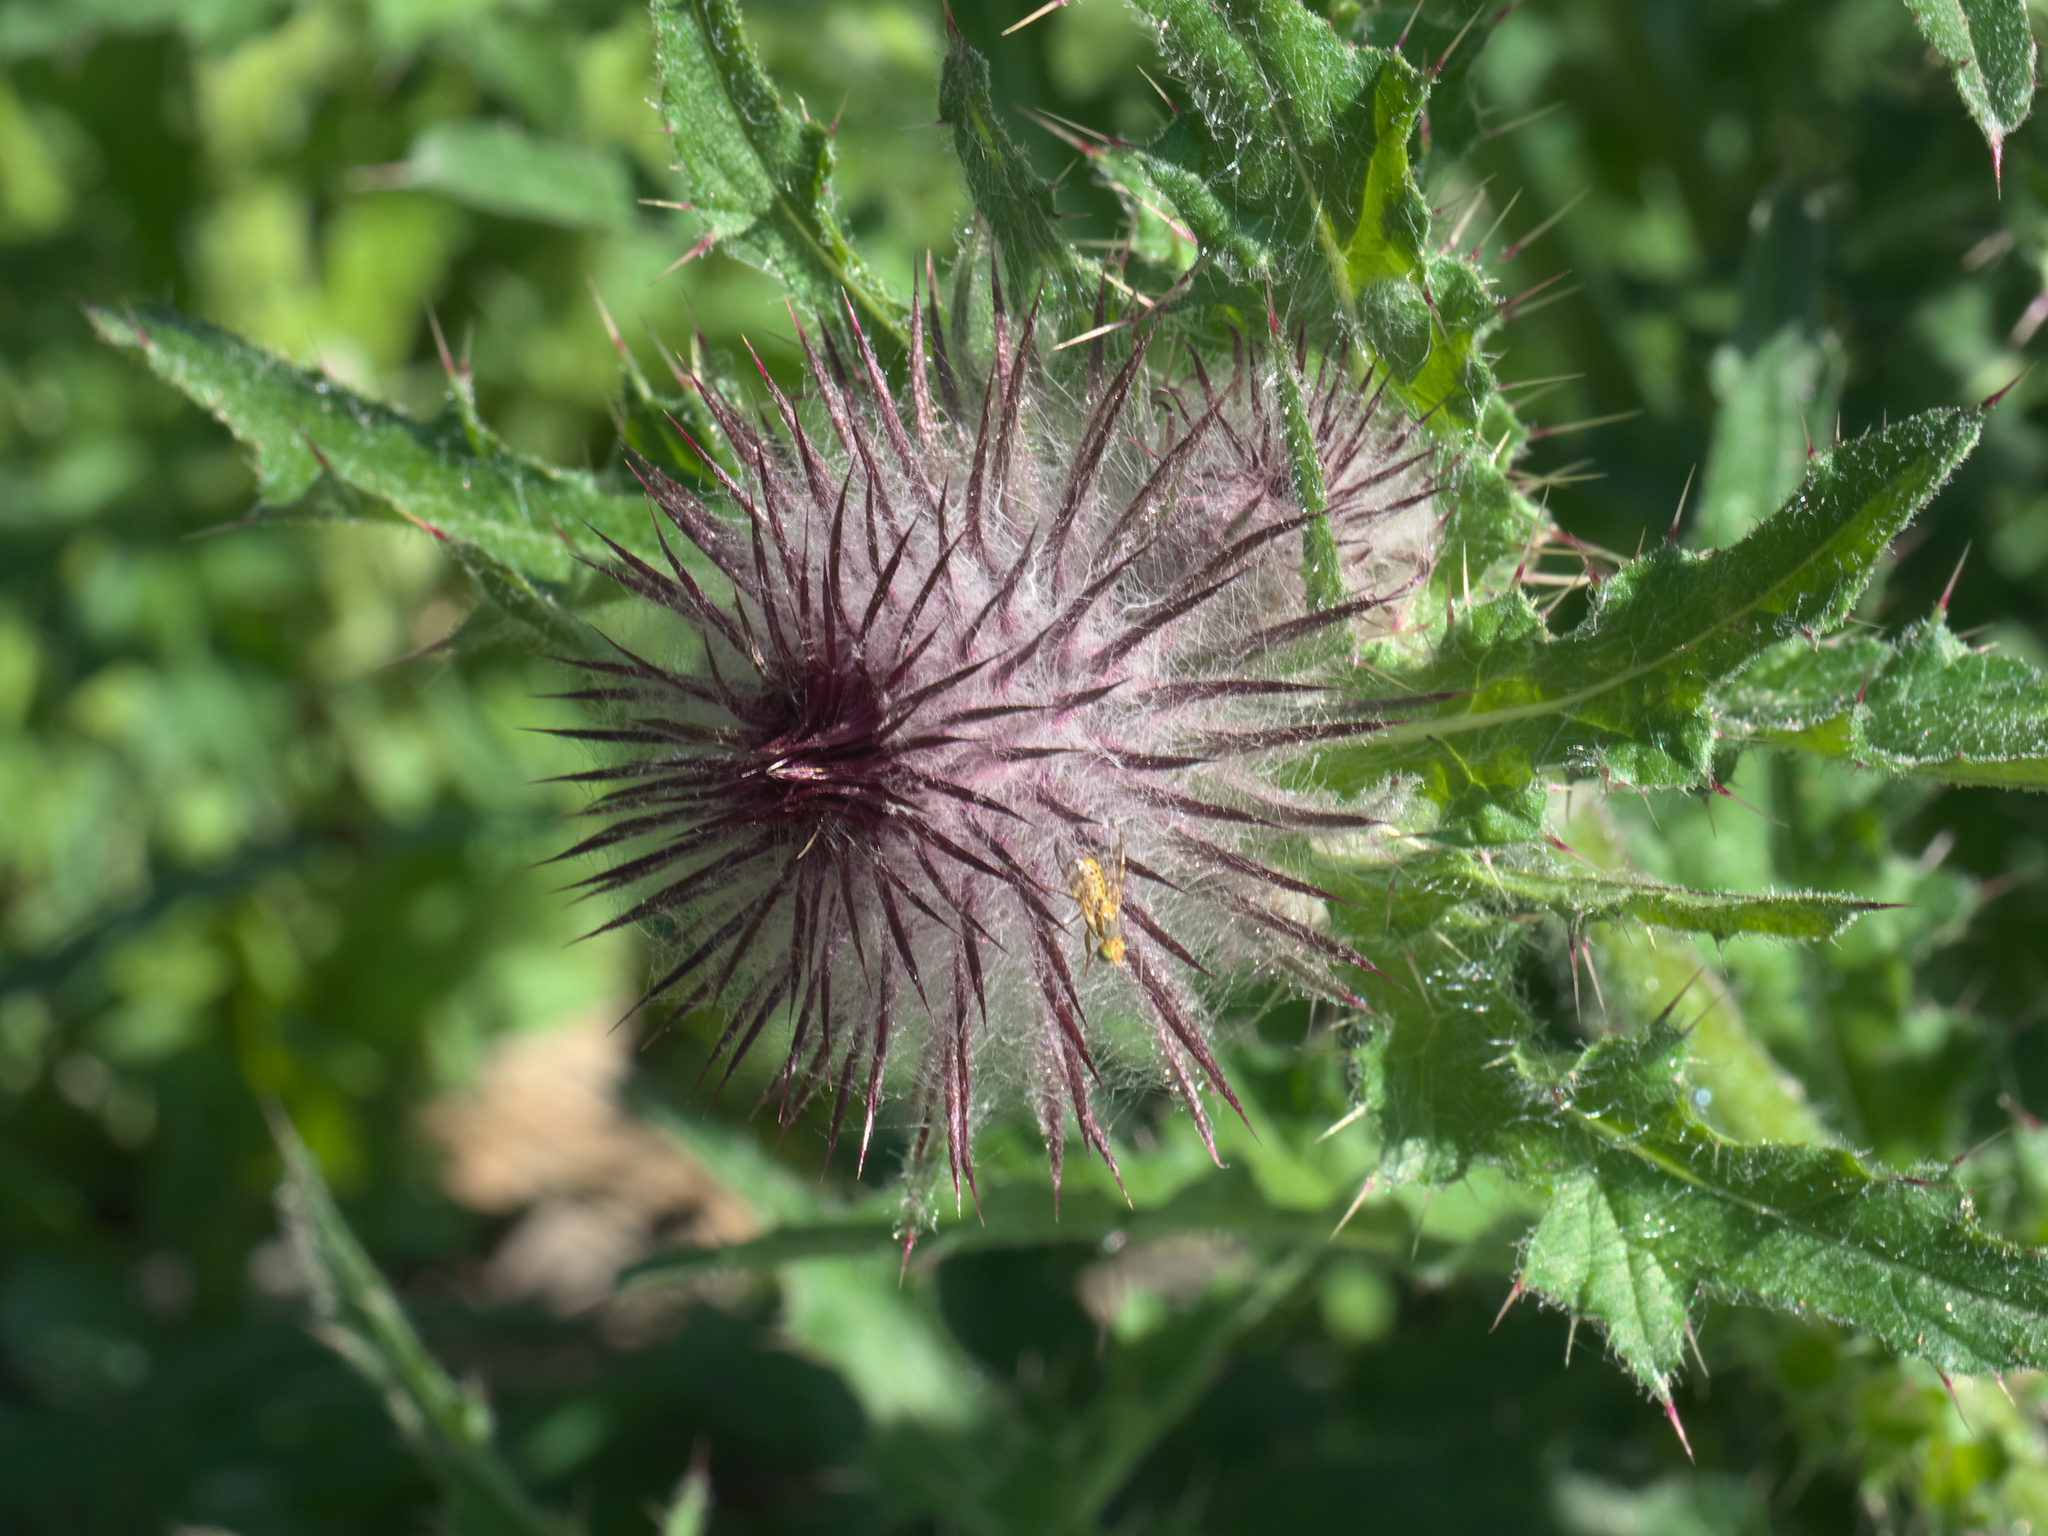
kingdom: Plantae
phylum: Tracheophyta
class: Magnoliopsida
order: Asterales
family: Asteraceae
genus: Cirsium
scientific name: Cirsium edule
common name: Indian thistle
